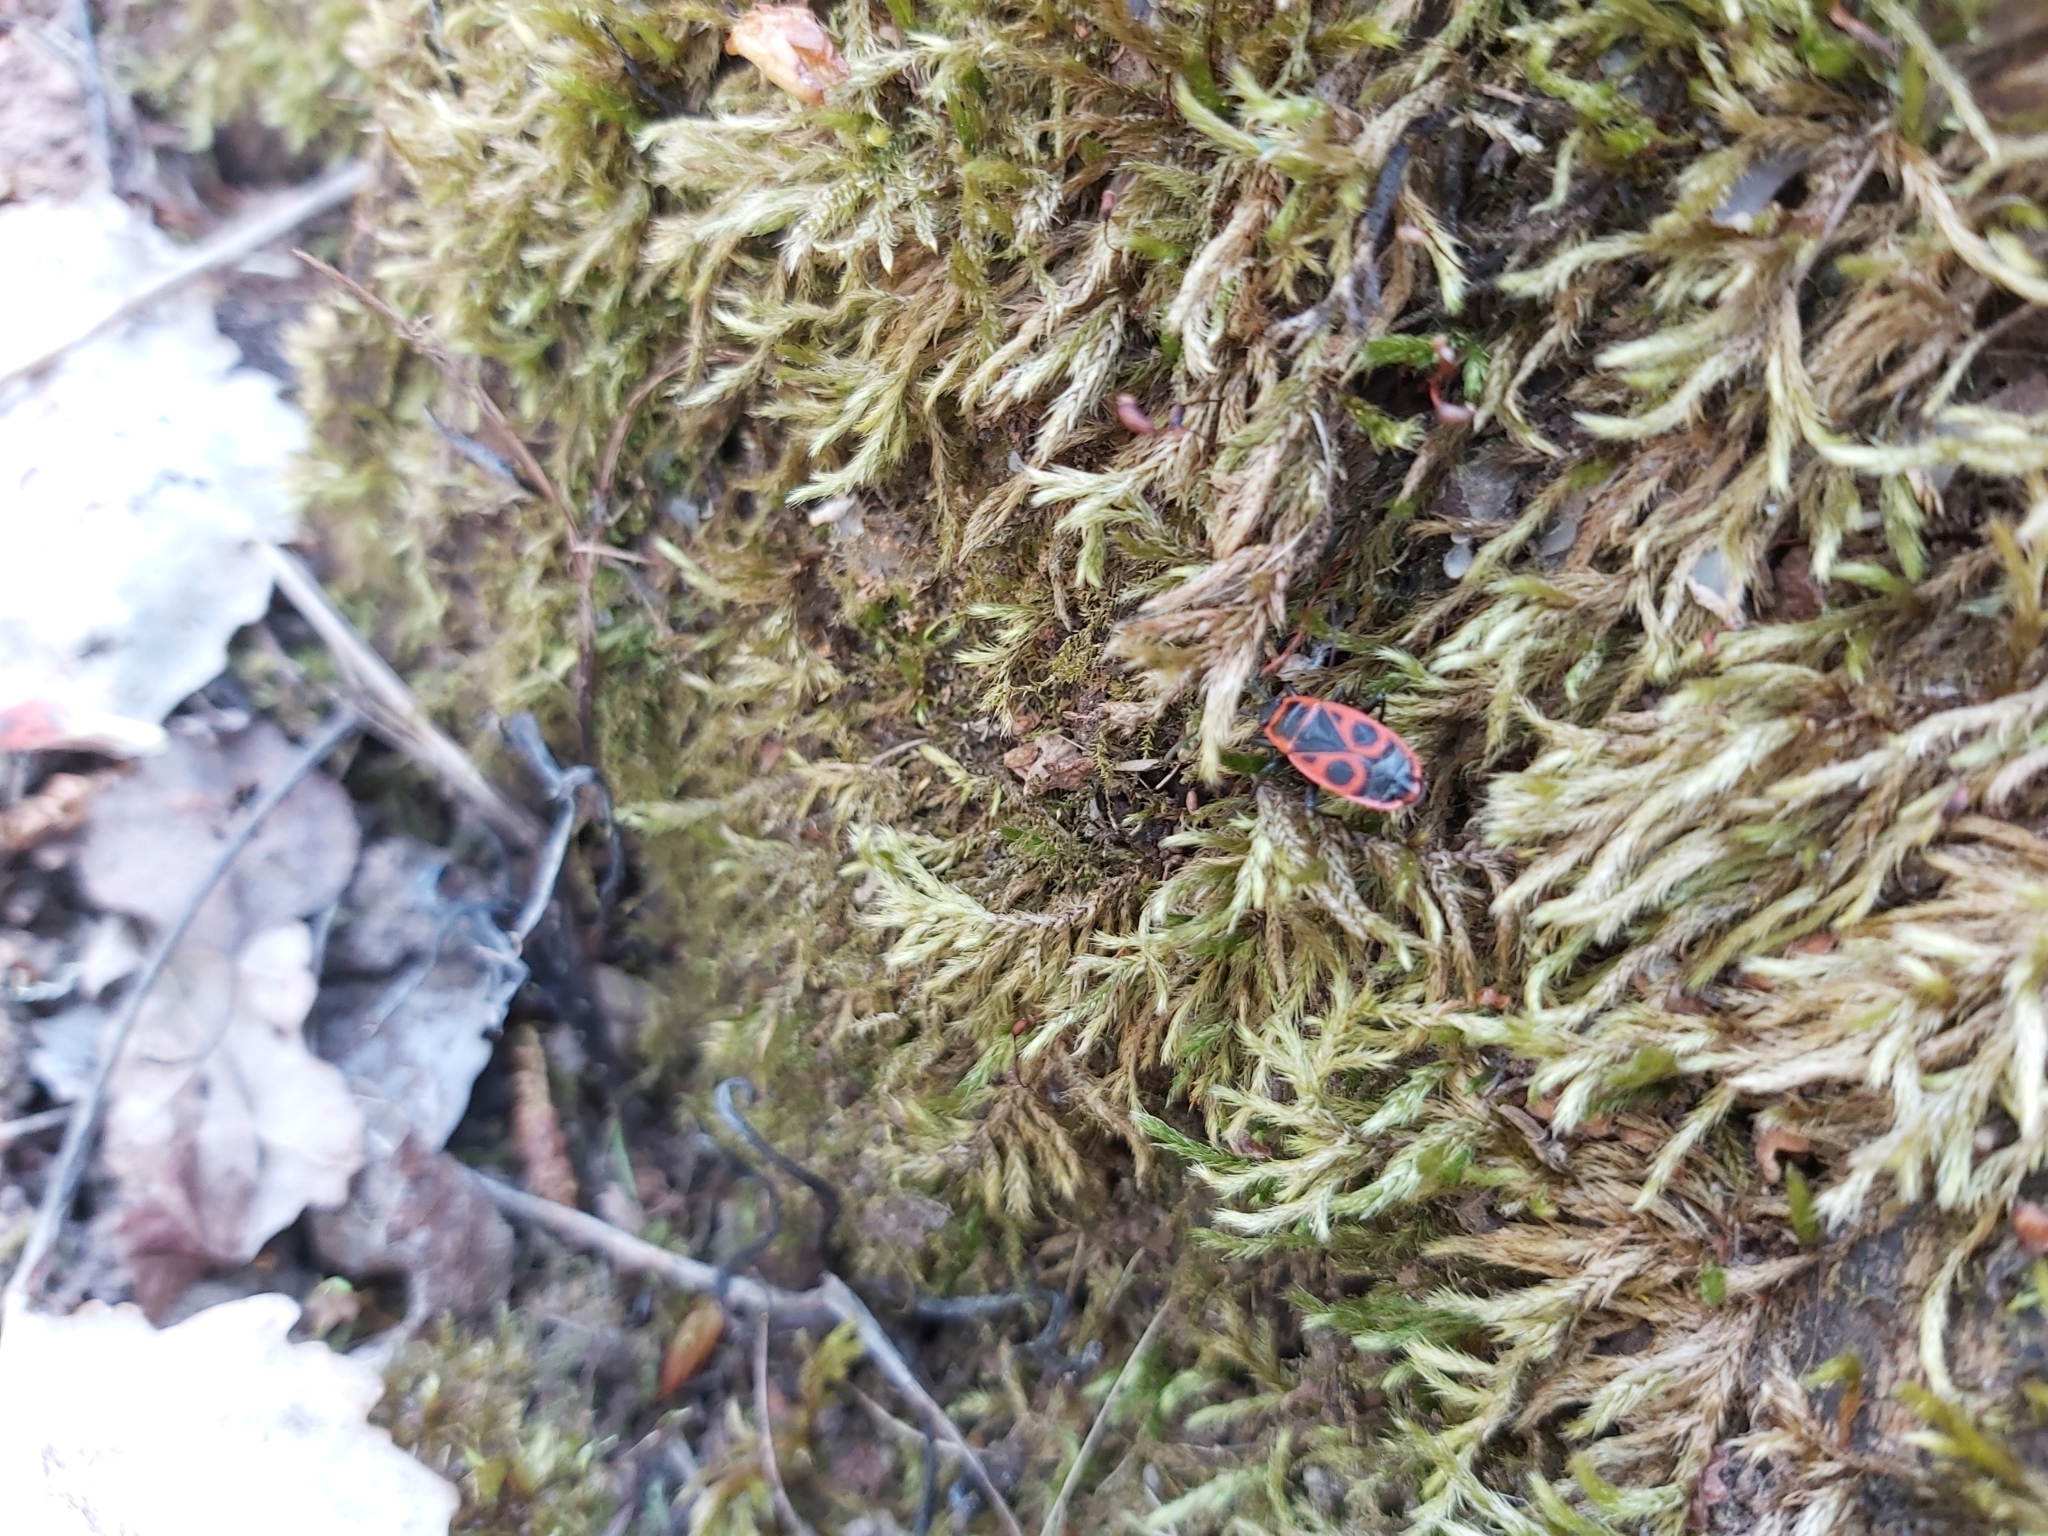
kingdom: Animalia
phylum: Arthropoda
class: Insecta
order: Hemiptera
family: Pyrrhocoridae
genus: Pyrrhocoris
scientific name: Pyrrhocoris apterus
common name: Firebug
